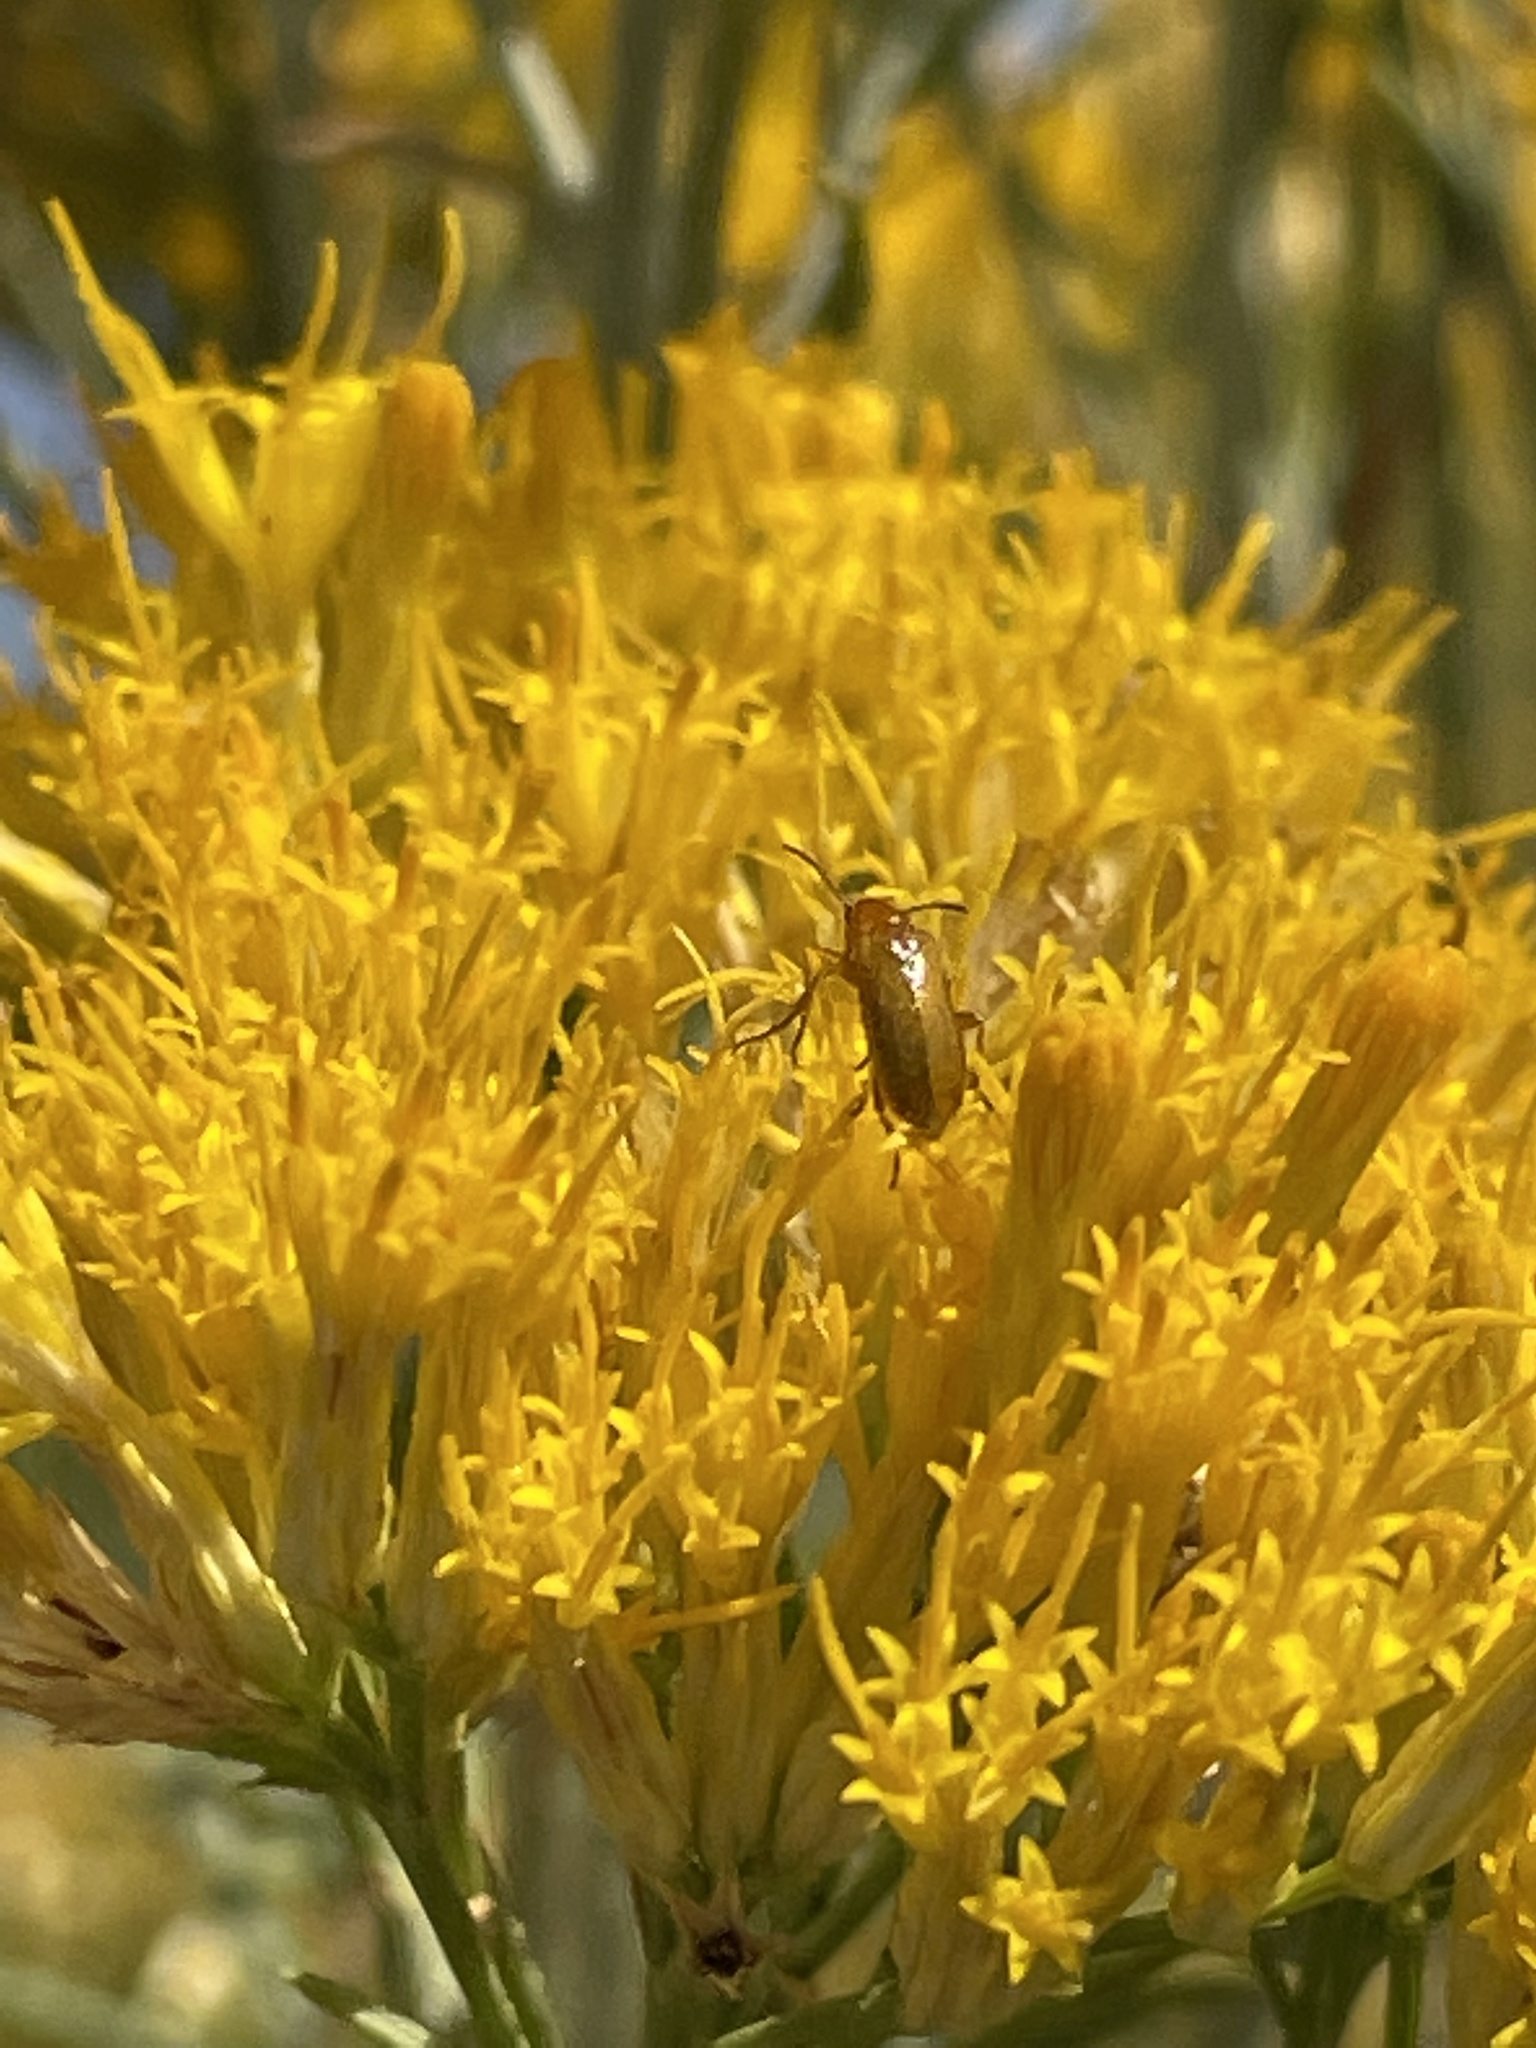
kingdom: Animalia
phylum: Arthropoda
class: Insecta
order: Coleoptera
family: Meloidae
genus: Gnathium
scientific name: Gnathium
